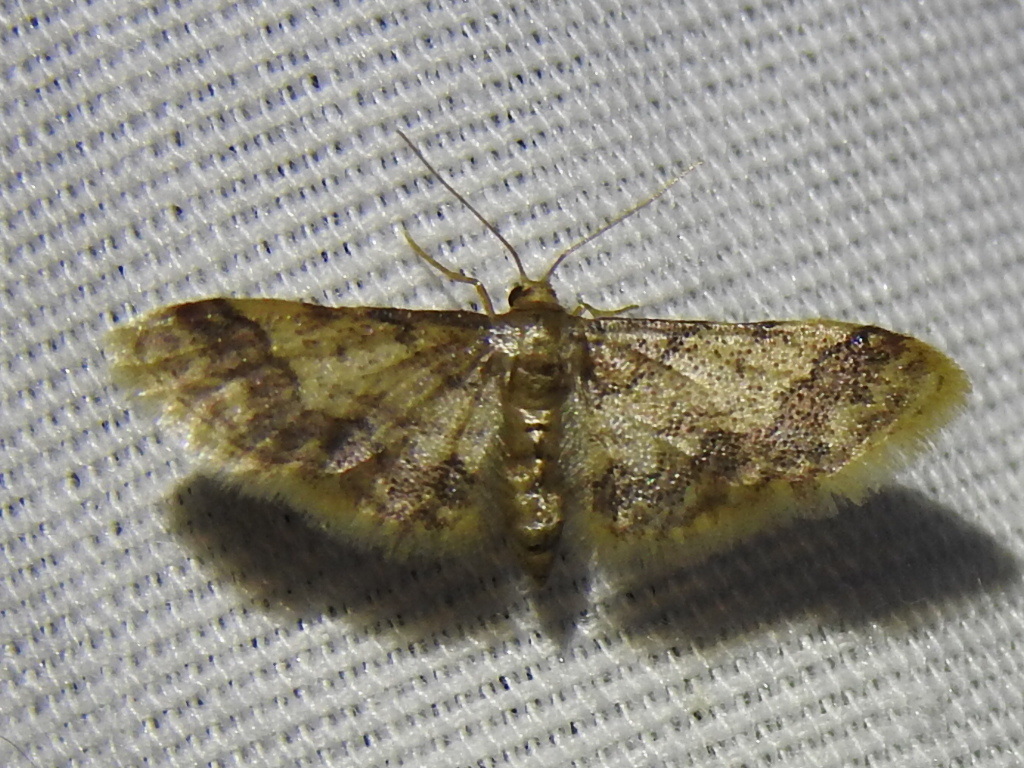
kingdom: Animalia
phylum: Arthropoda
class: Insecta
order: Lepidoptera
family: Geometridae
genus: Idaea
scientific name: Idaea furciferata
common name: Notch-winged wave
